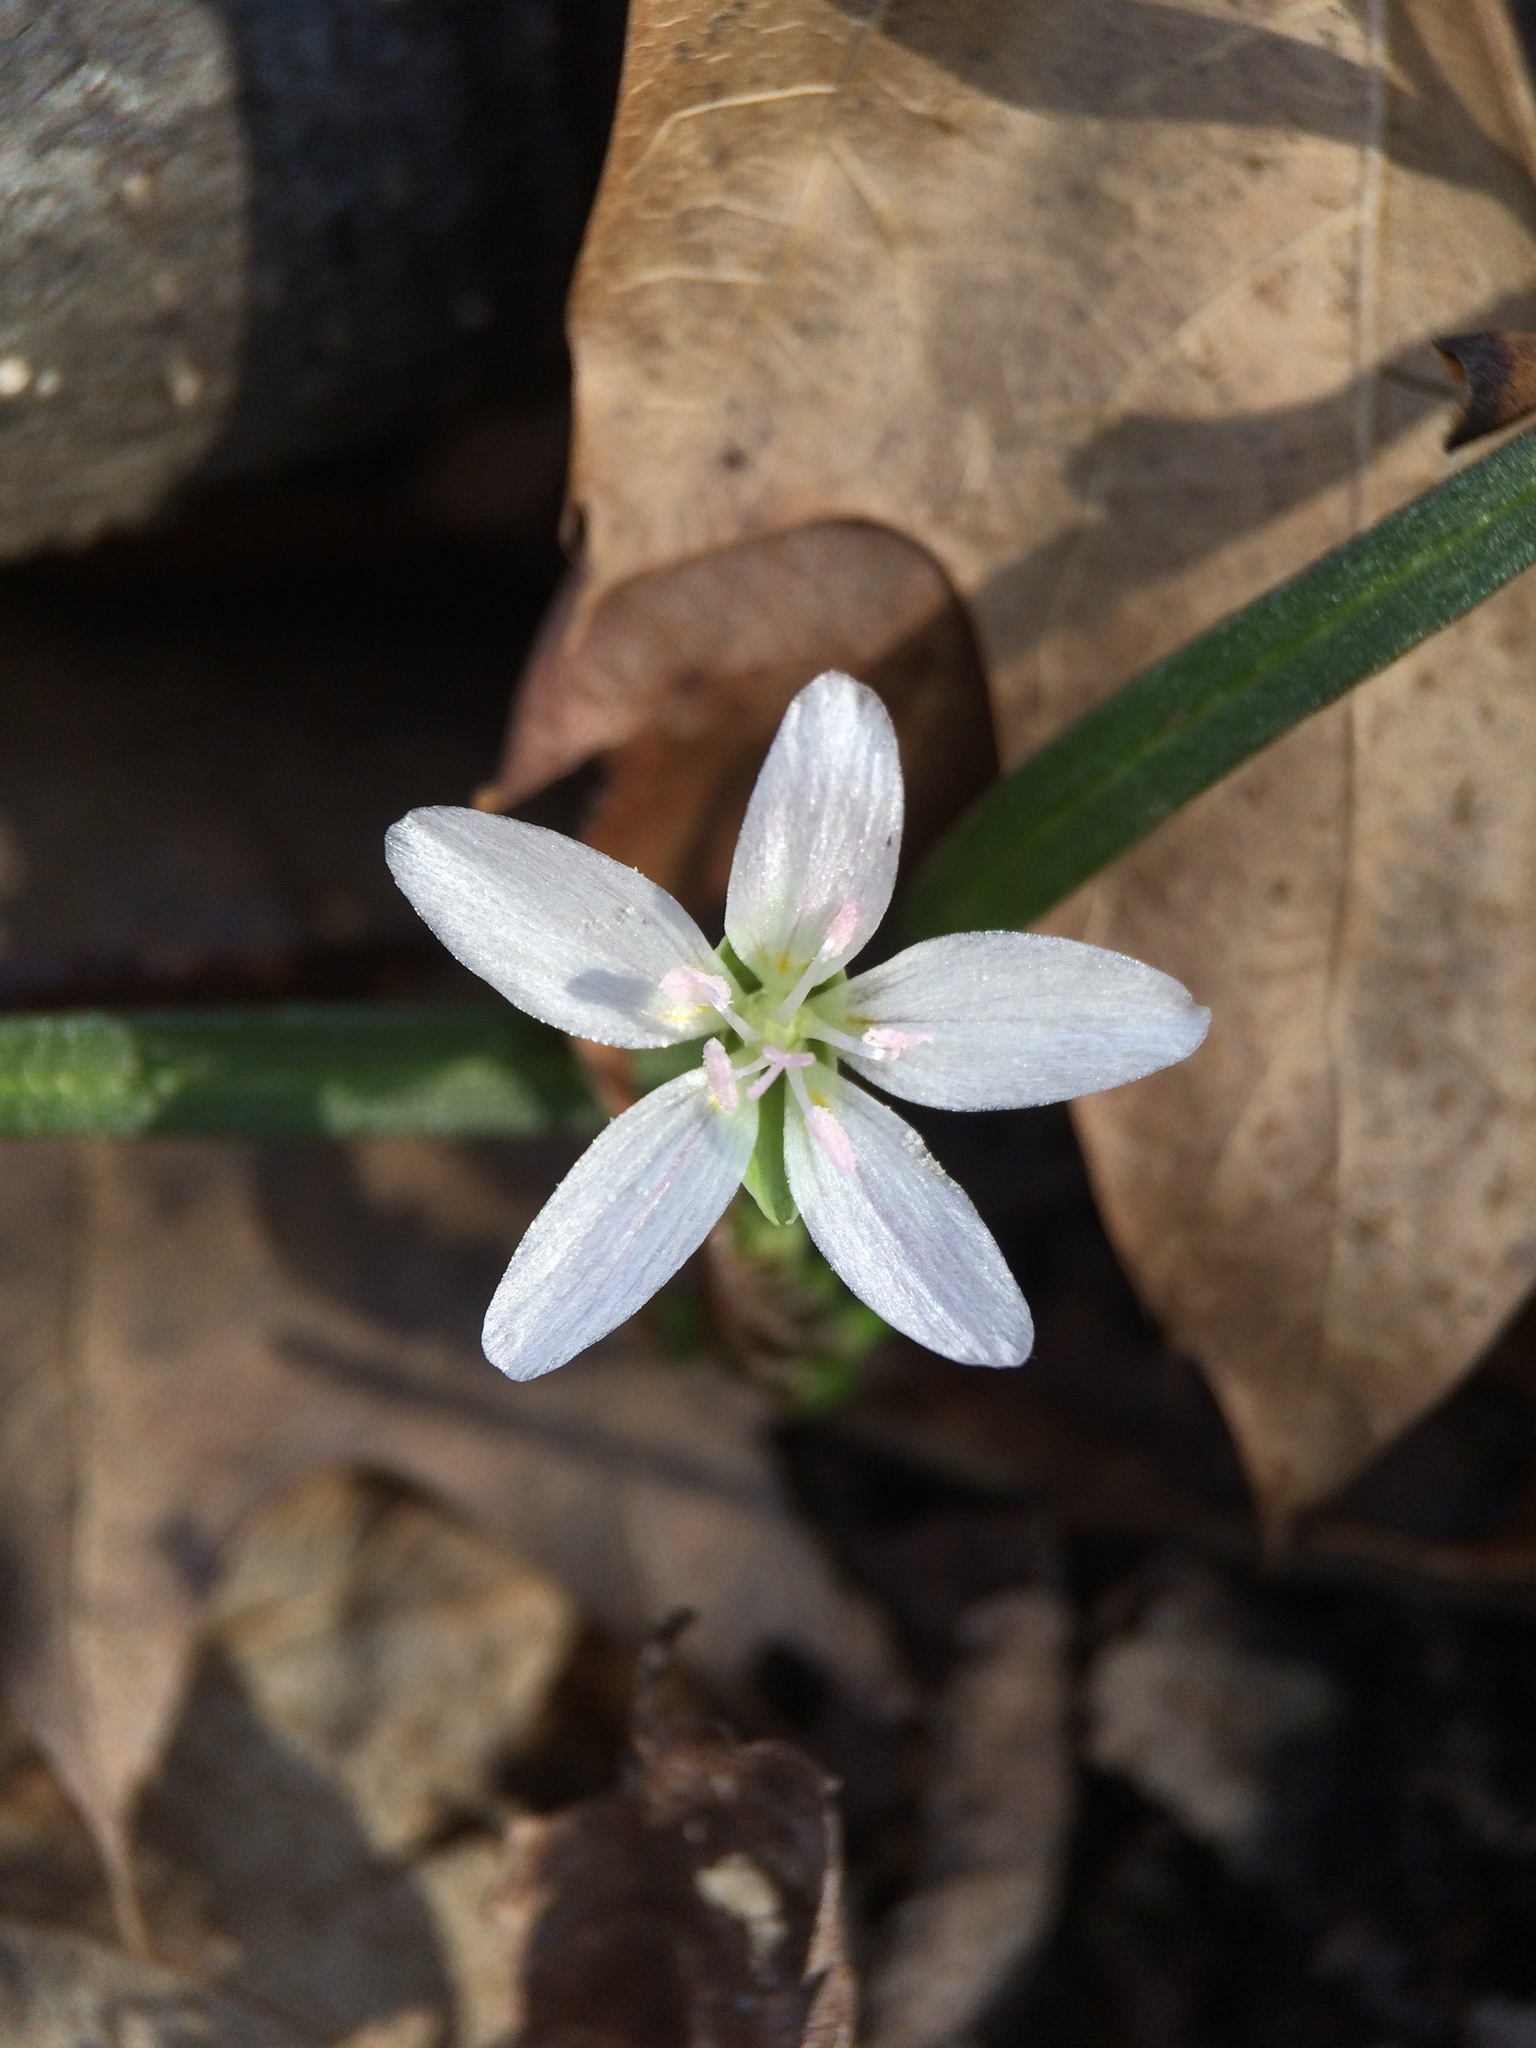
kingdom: Plantae
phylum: Tracheophyta
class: Magnoliopsida
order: Caryophyllales
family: Montiaceae
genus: Claytonia
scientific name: Claytonia virginica
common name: Virginia springbeauty
